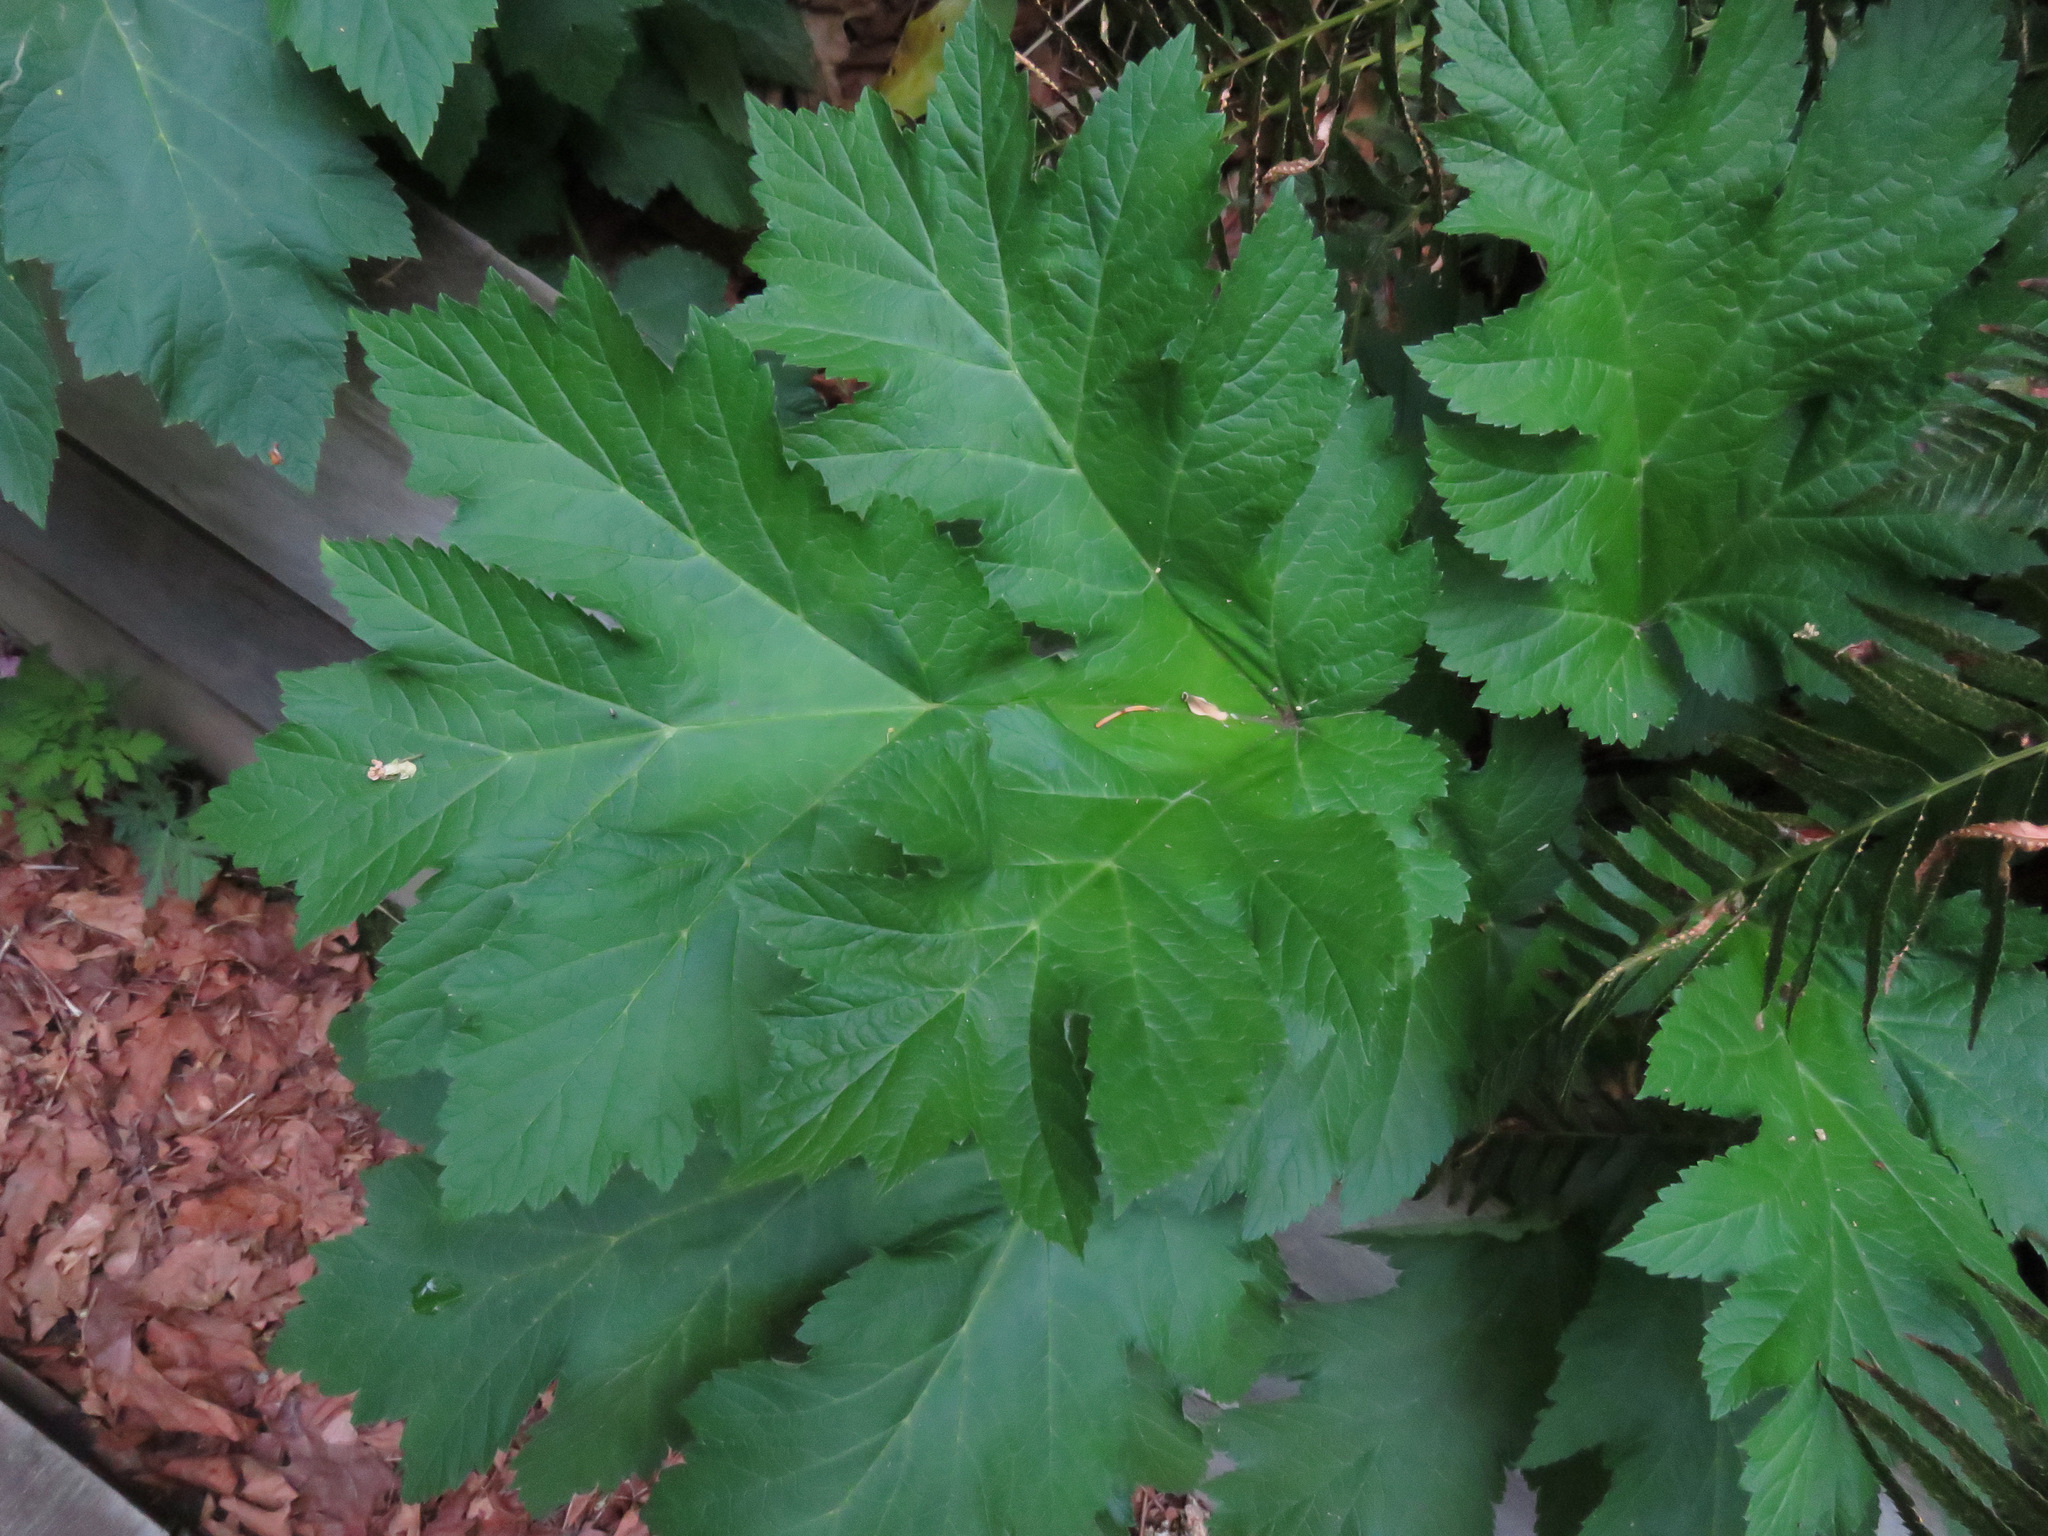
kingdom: Plantae
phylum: Tracheophyta
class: Magnoliopsida
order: Apiales
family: Apiaceae
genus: Heracleum
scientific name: Heracleum maximum
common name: American cow parsnip
